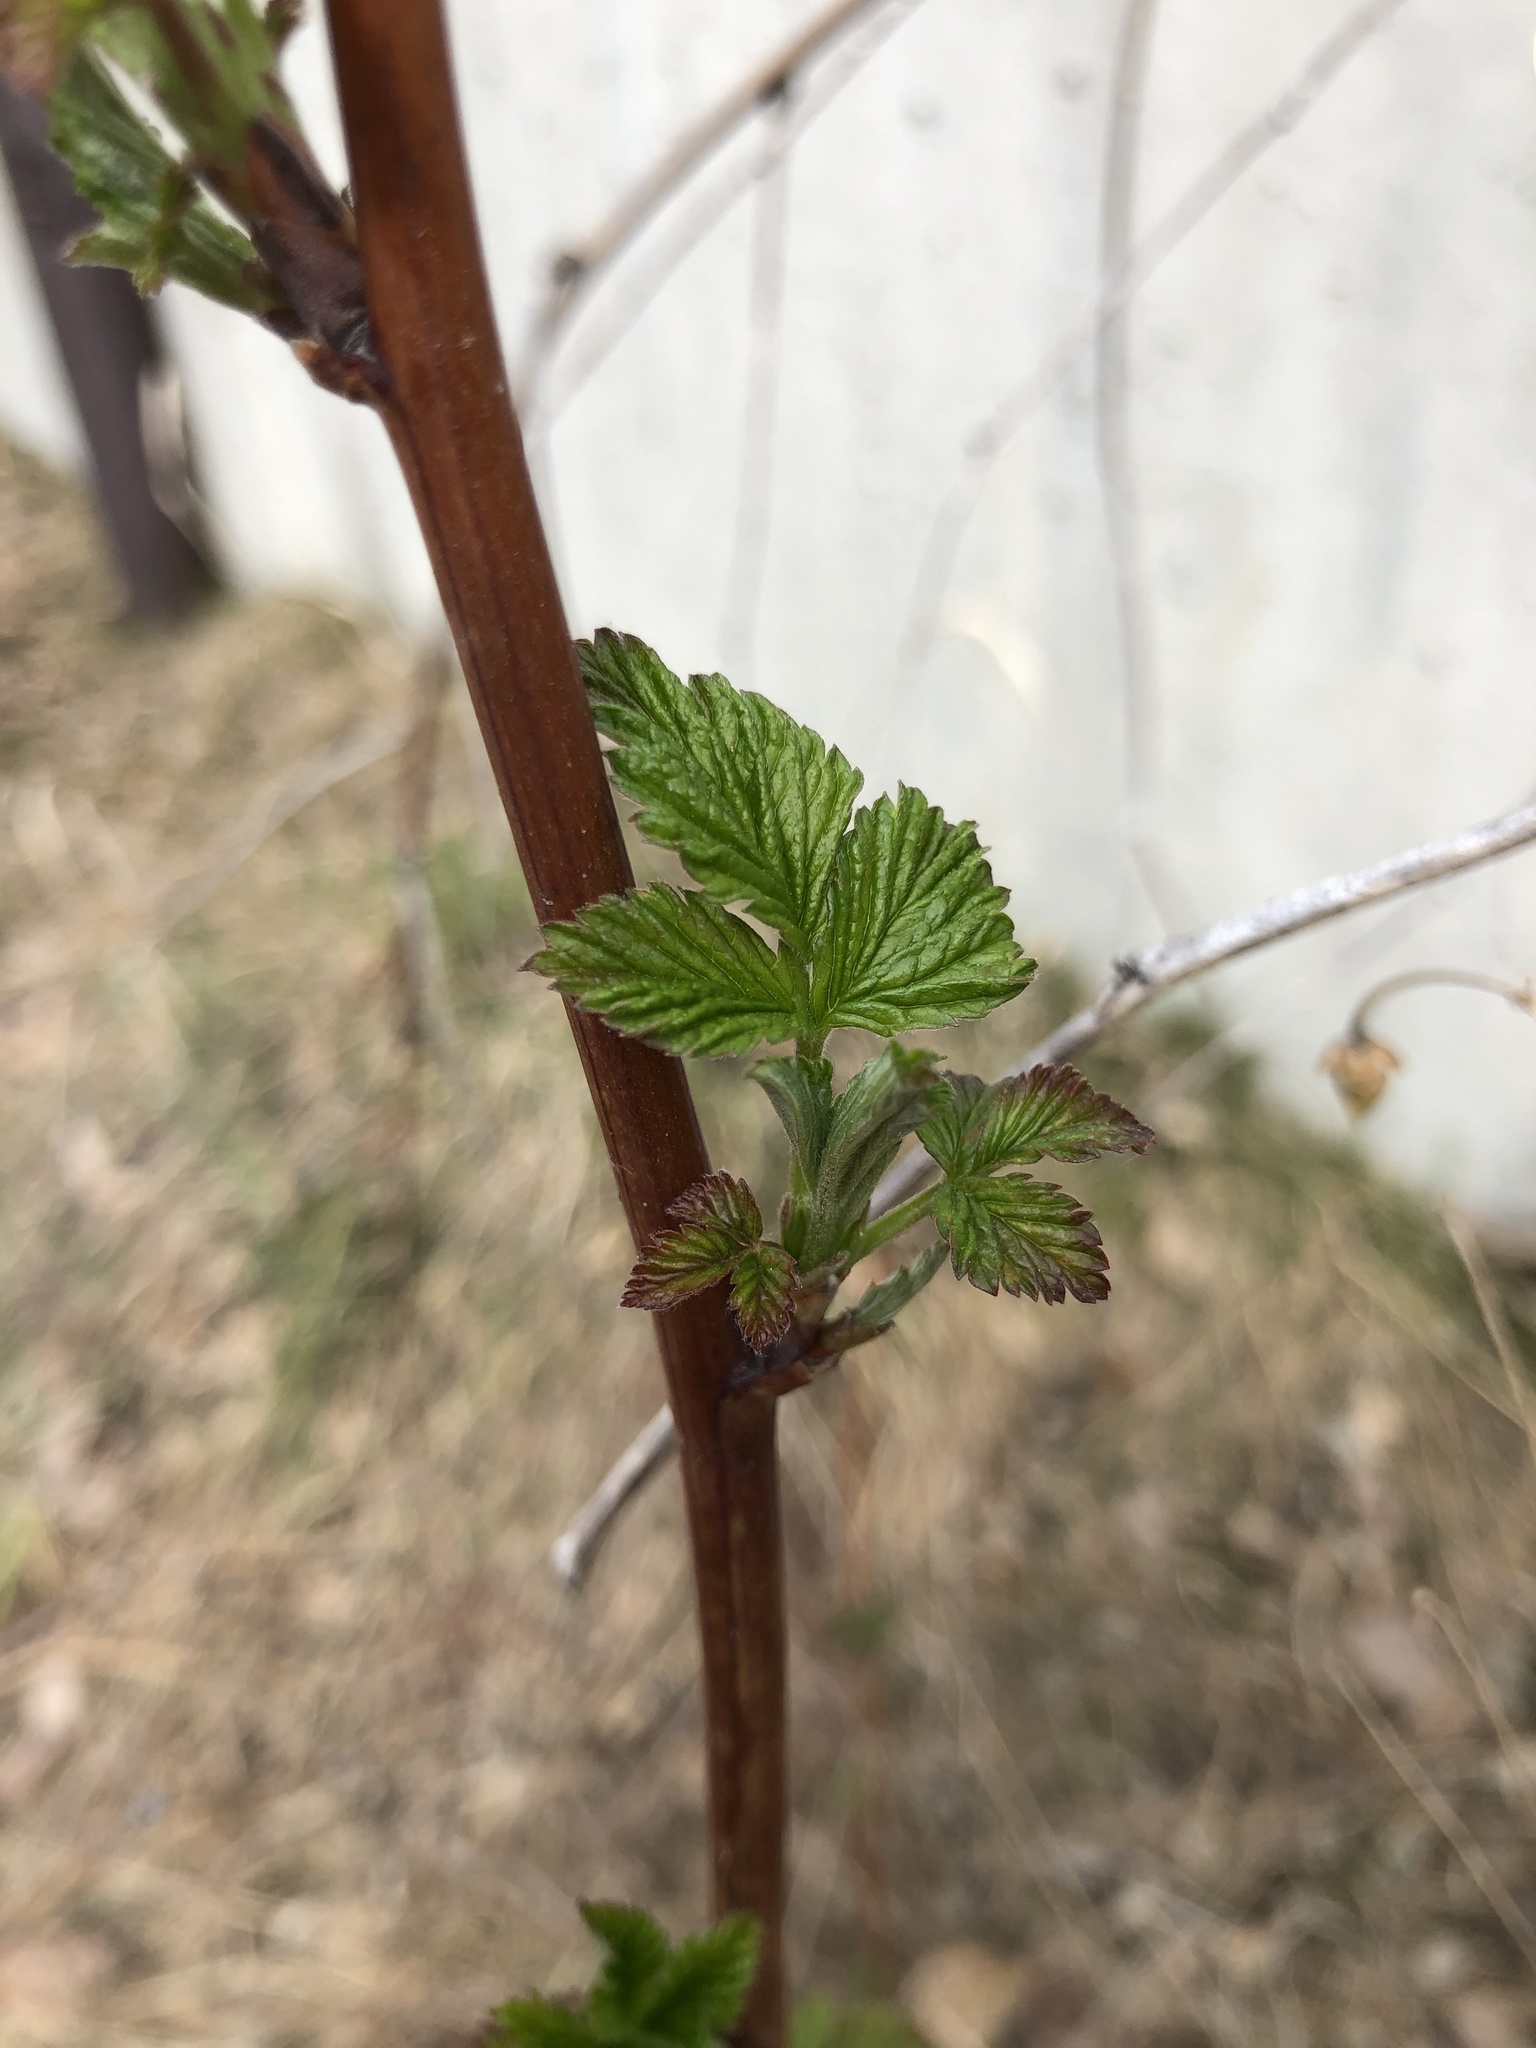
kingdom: Plantae
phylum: Tracheophyta
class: Magnoliopsida
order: Rosales
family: Rosaceae
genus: Rubus
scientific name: Rubus idaeus
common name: Raspberry
